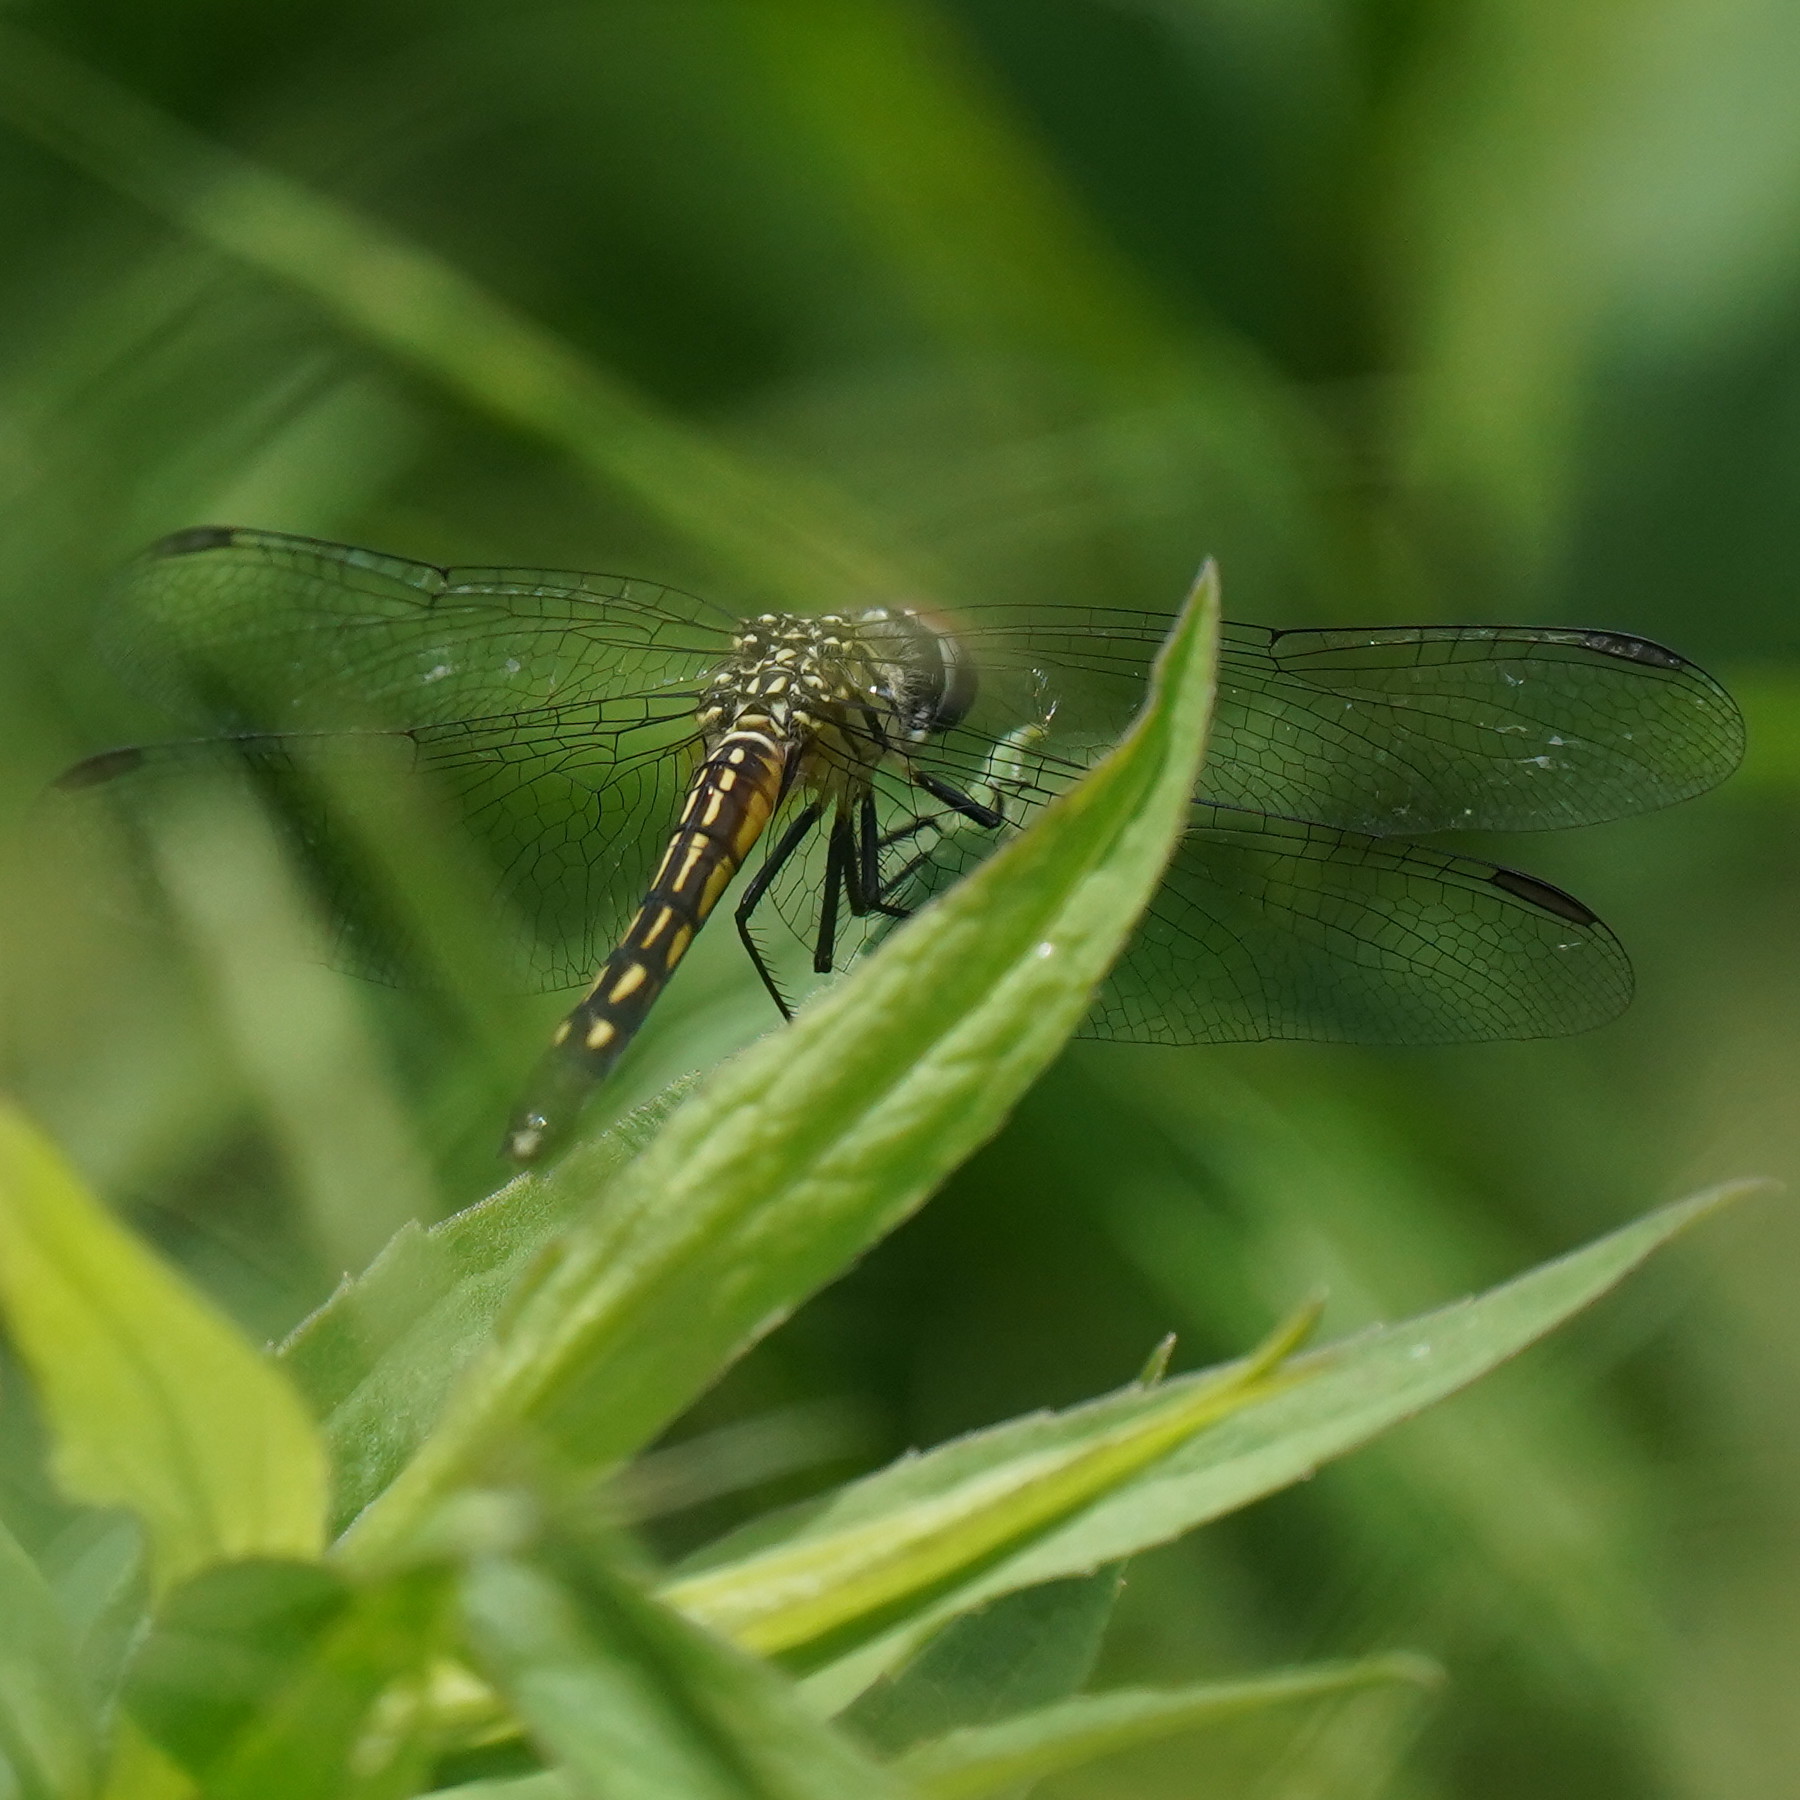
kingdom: Animalia
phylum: Arthropoda
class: Insecta
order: Odonata
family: Libellulidae
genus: Pachydiplax
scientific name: Pachydiplax longipennis
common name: Blue dasher
